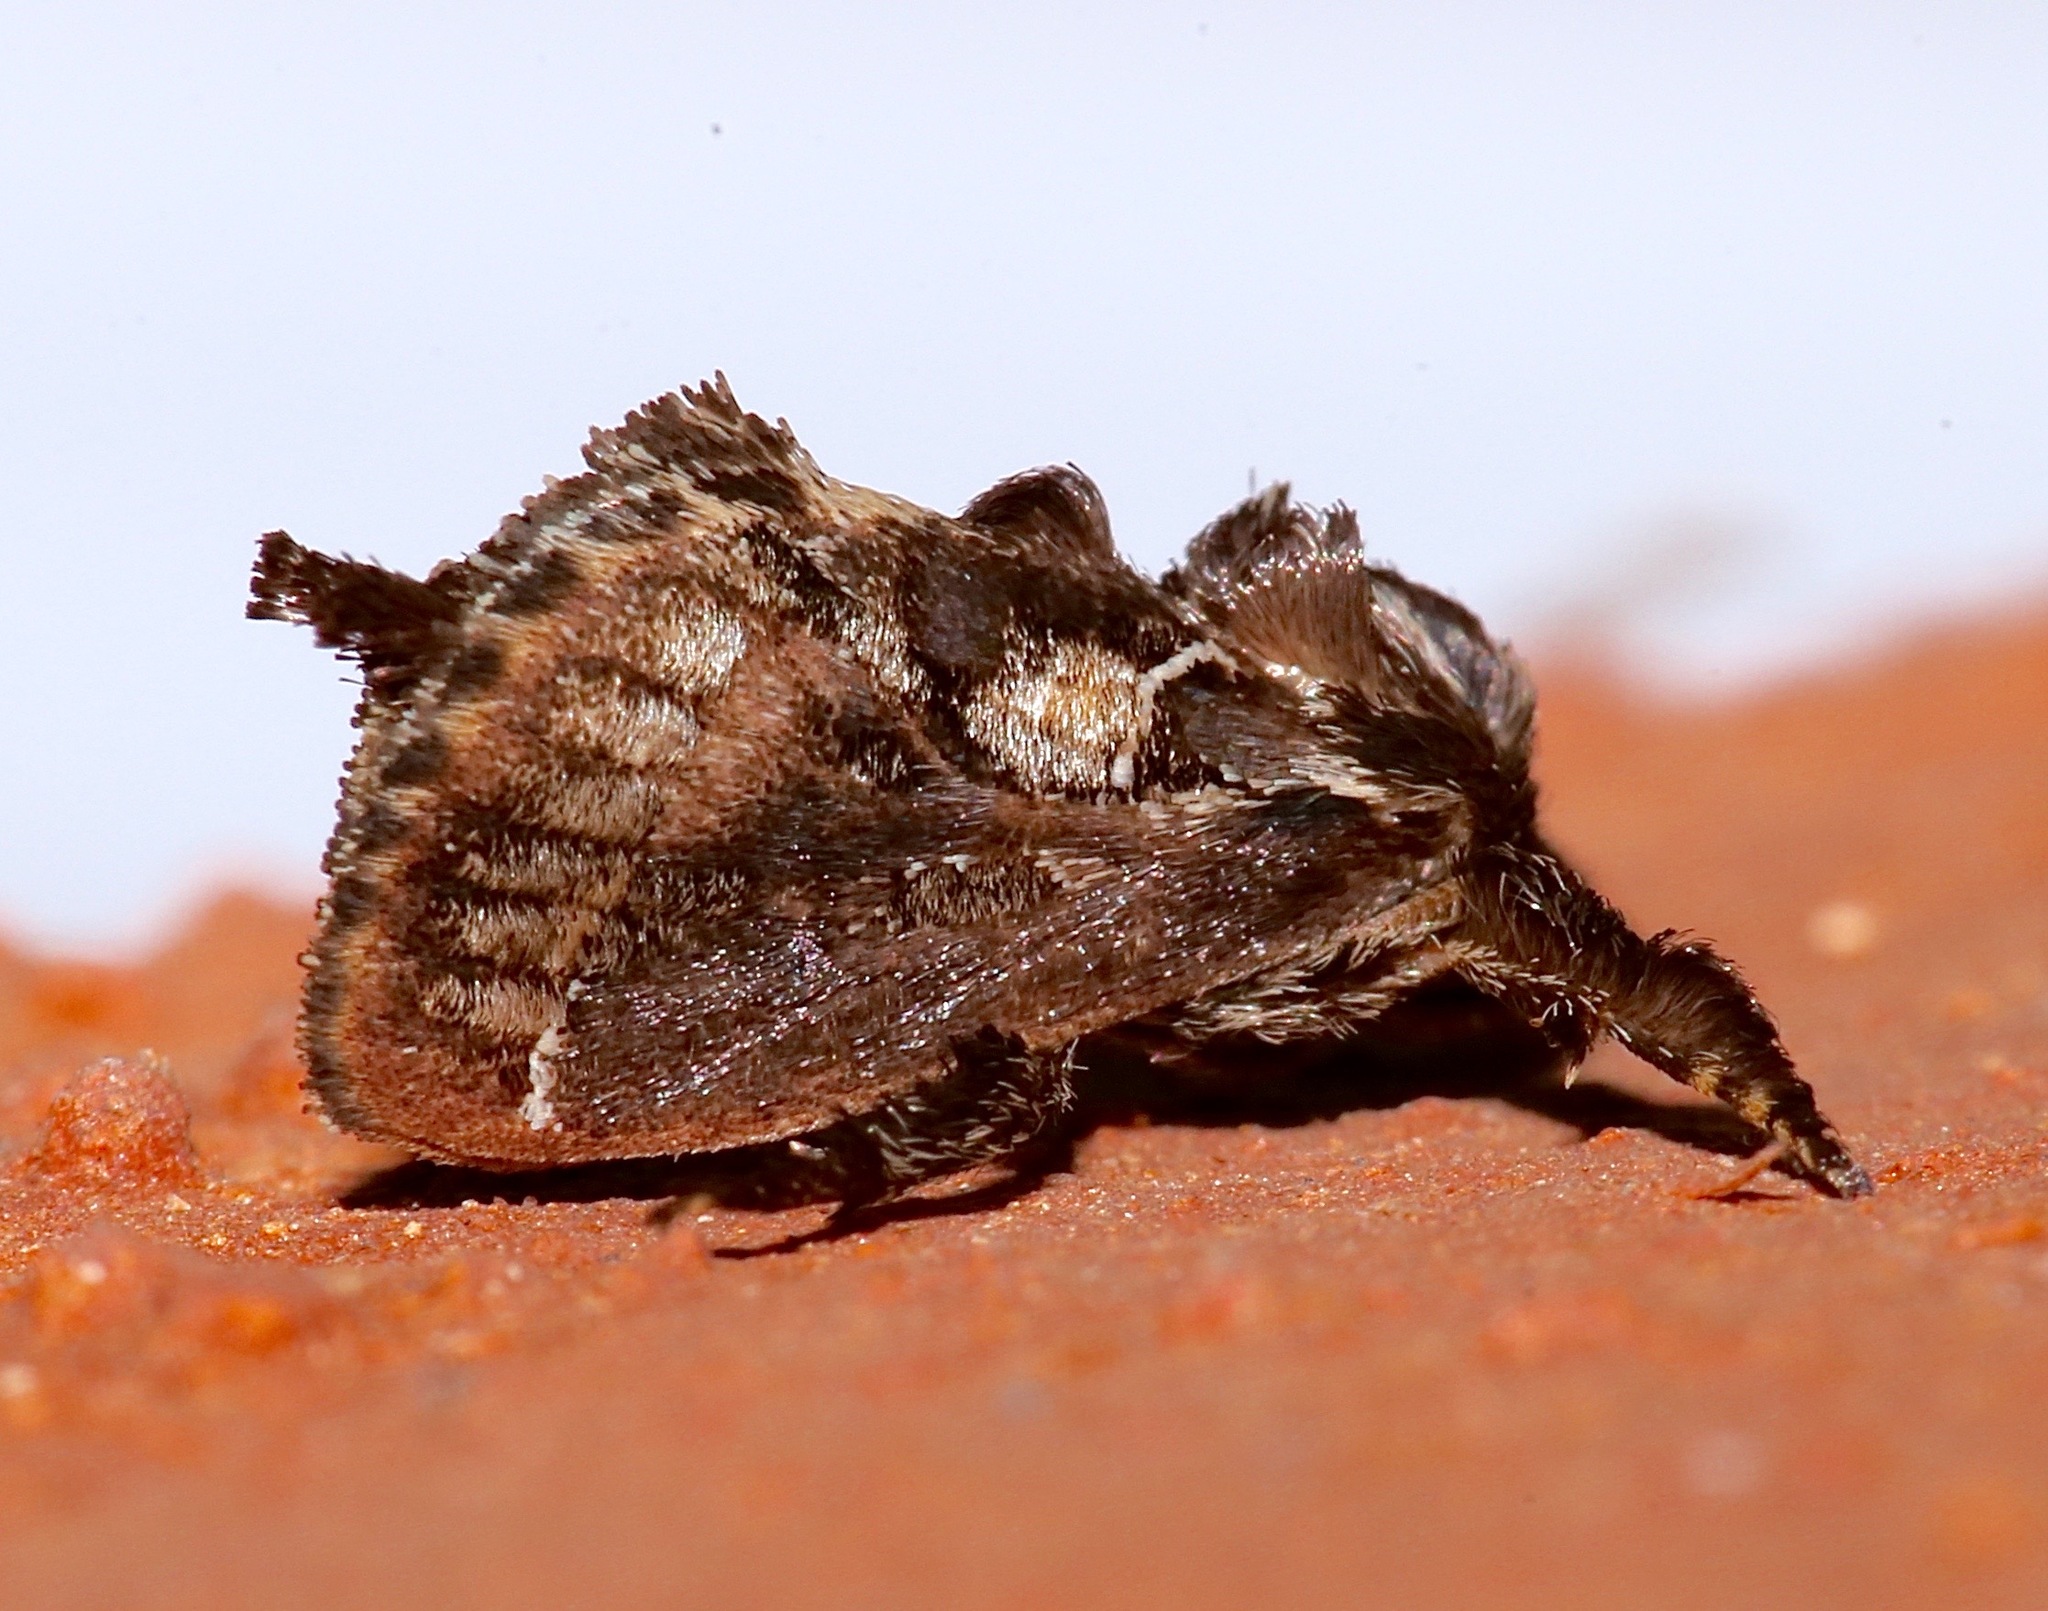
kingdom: Animalia
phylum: Arthropoda
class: Insecta
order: Lepidoptera
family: Limacodidae
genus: Euclea
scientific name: Euclea vericrux
